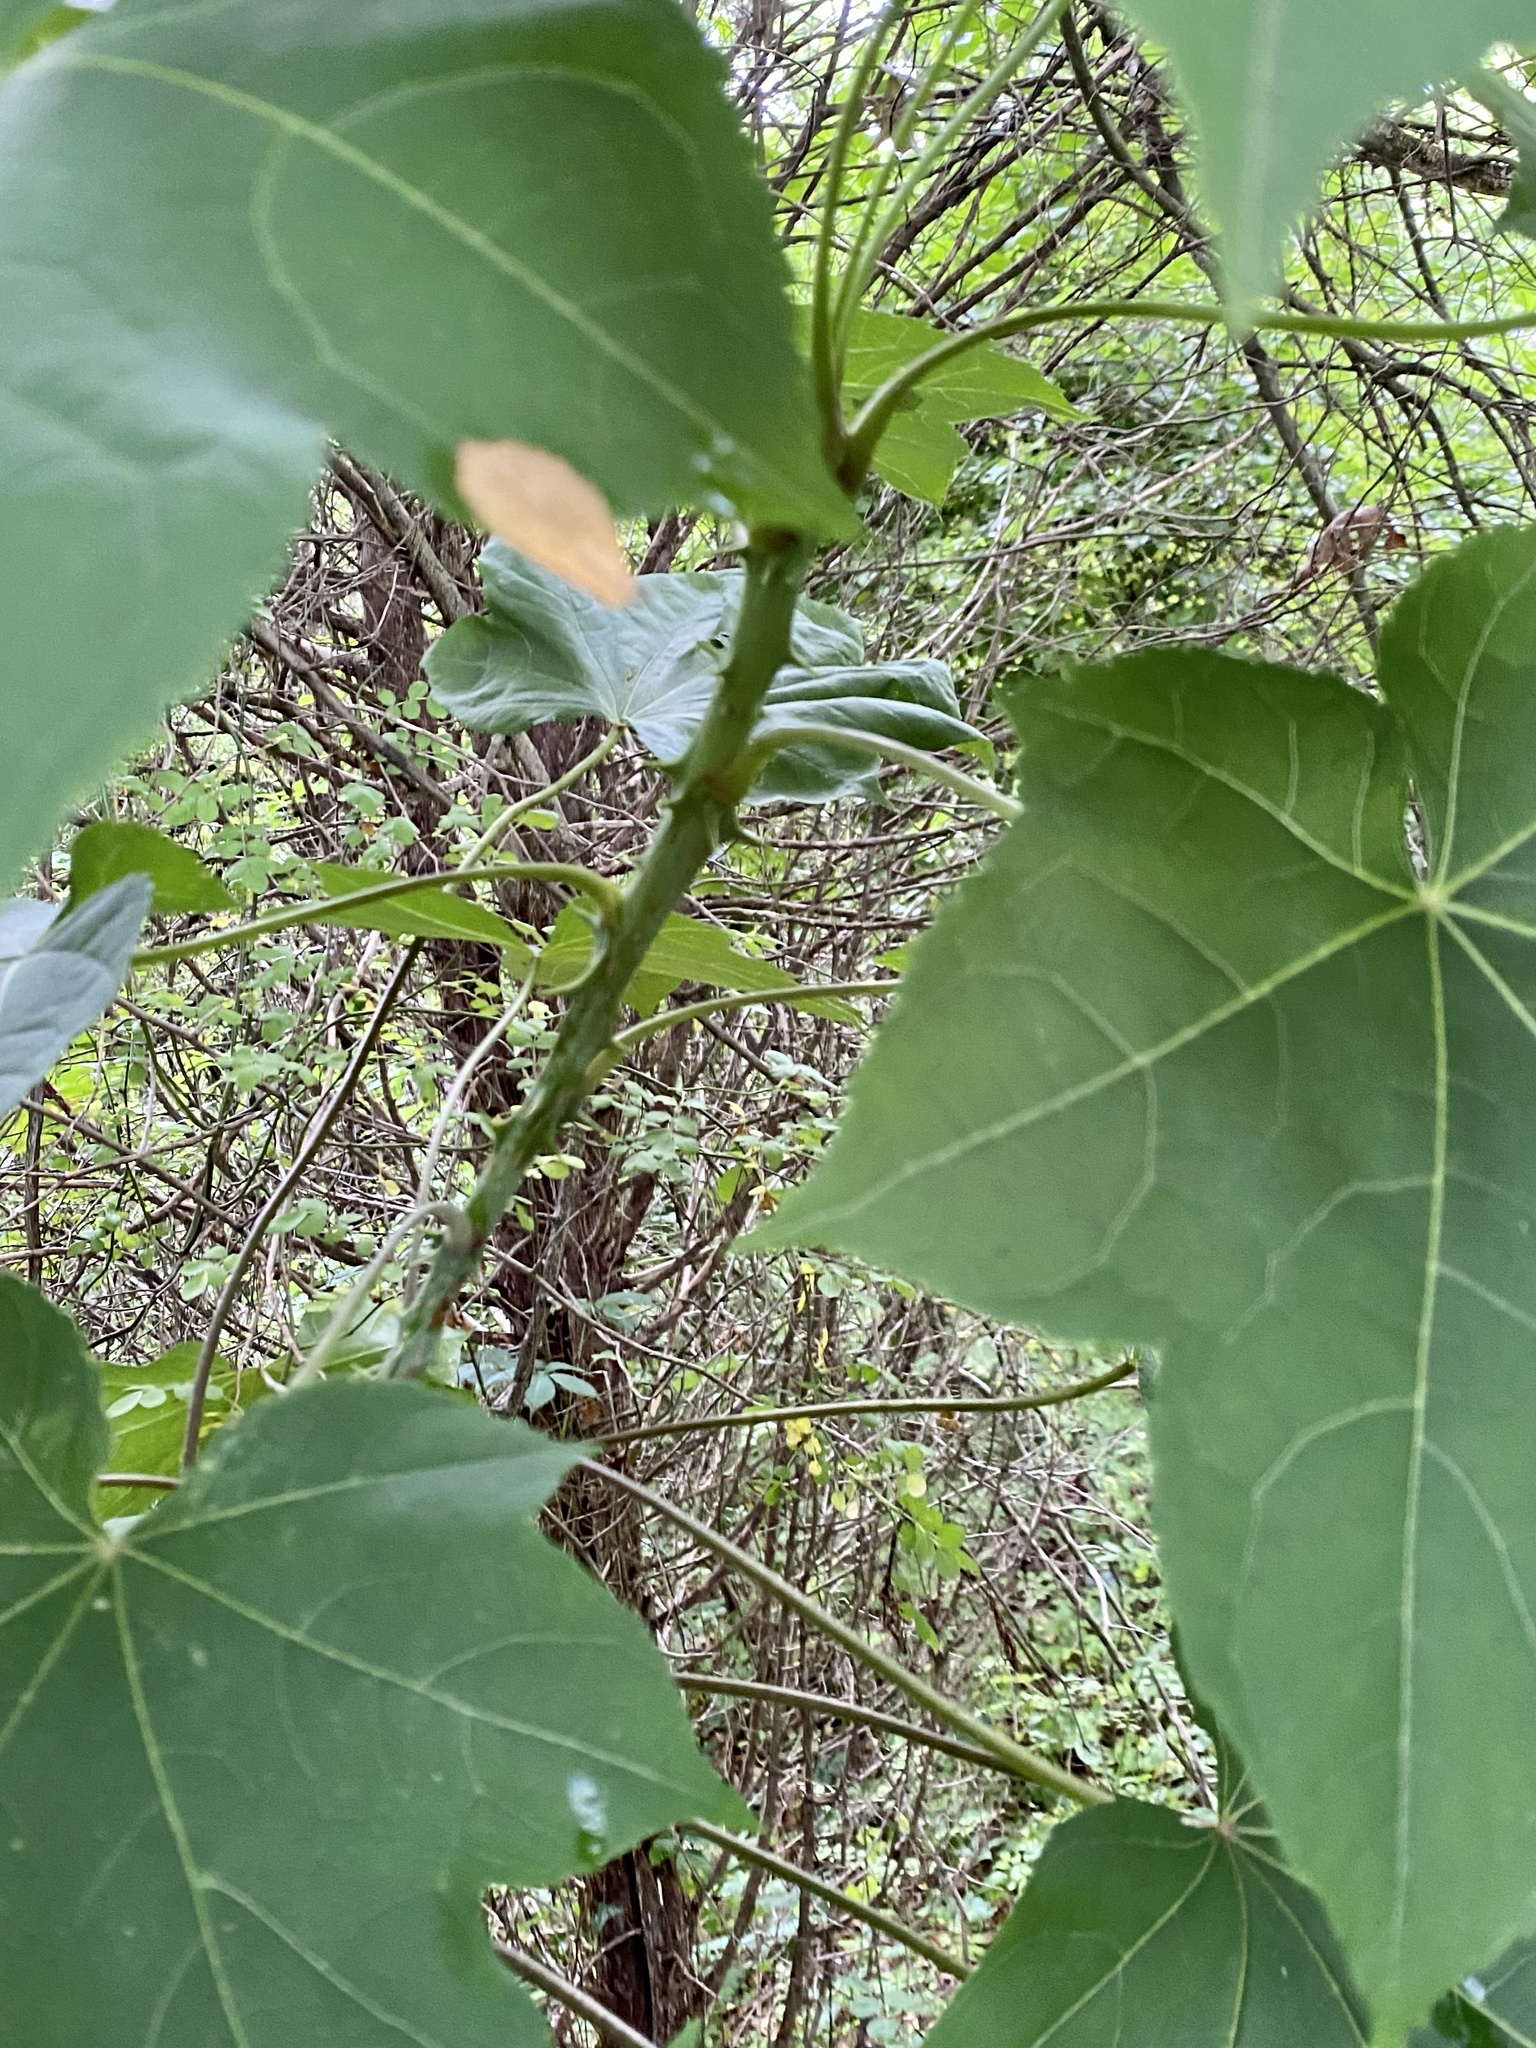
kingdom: Plantae
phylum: Tracheophyta
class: Magnoliopsida
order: Apiales
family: Araliaceae
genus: Kalopanax
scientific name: Kalopanax septemlobus
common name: Castor aralia
